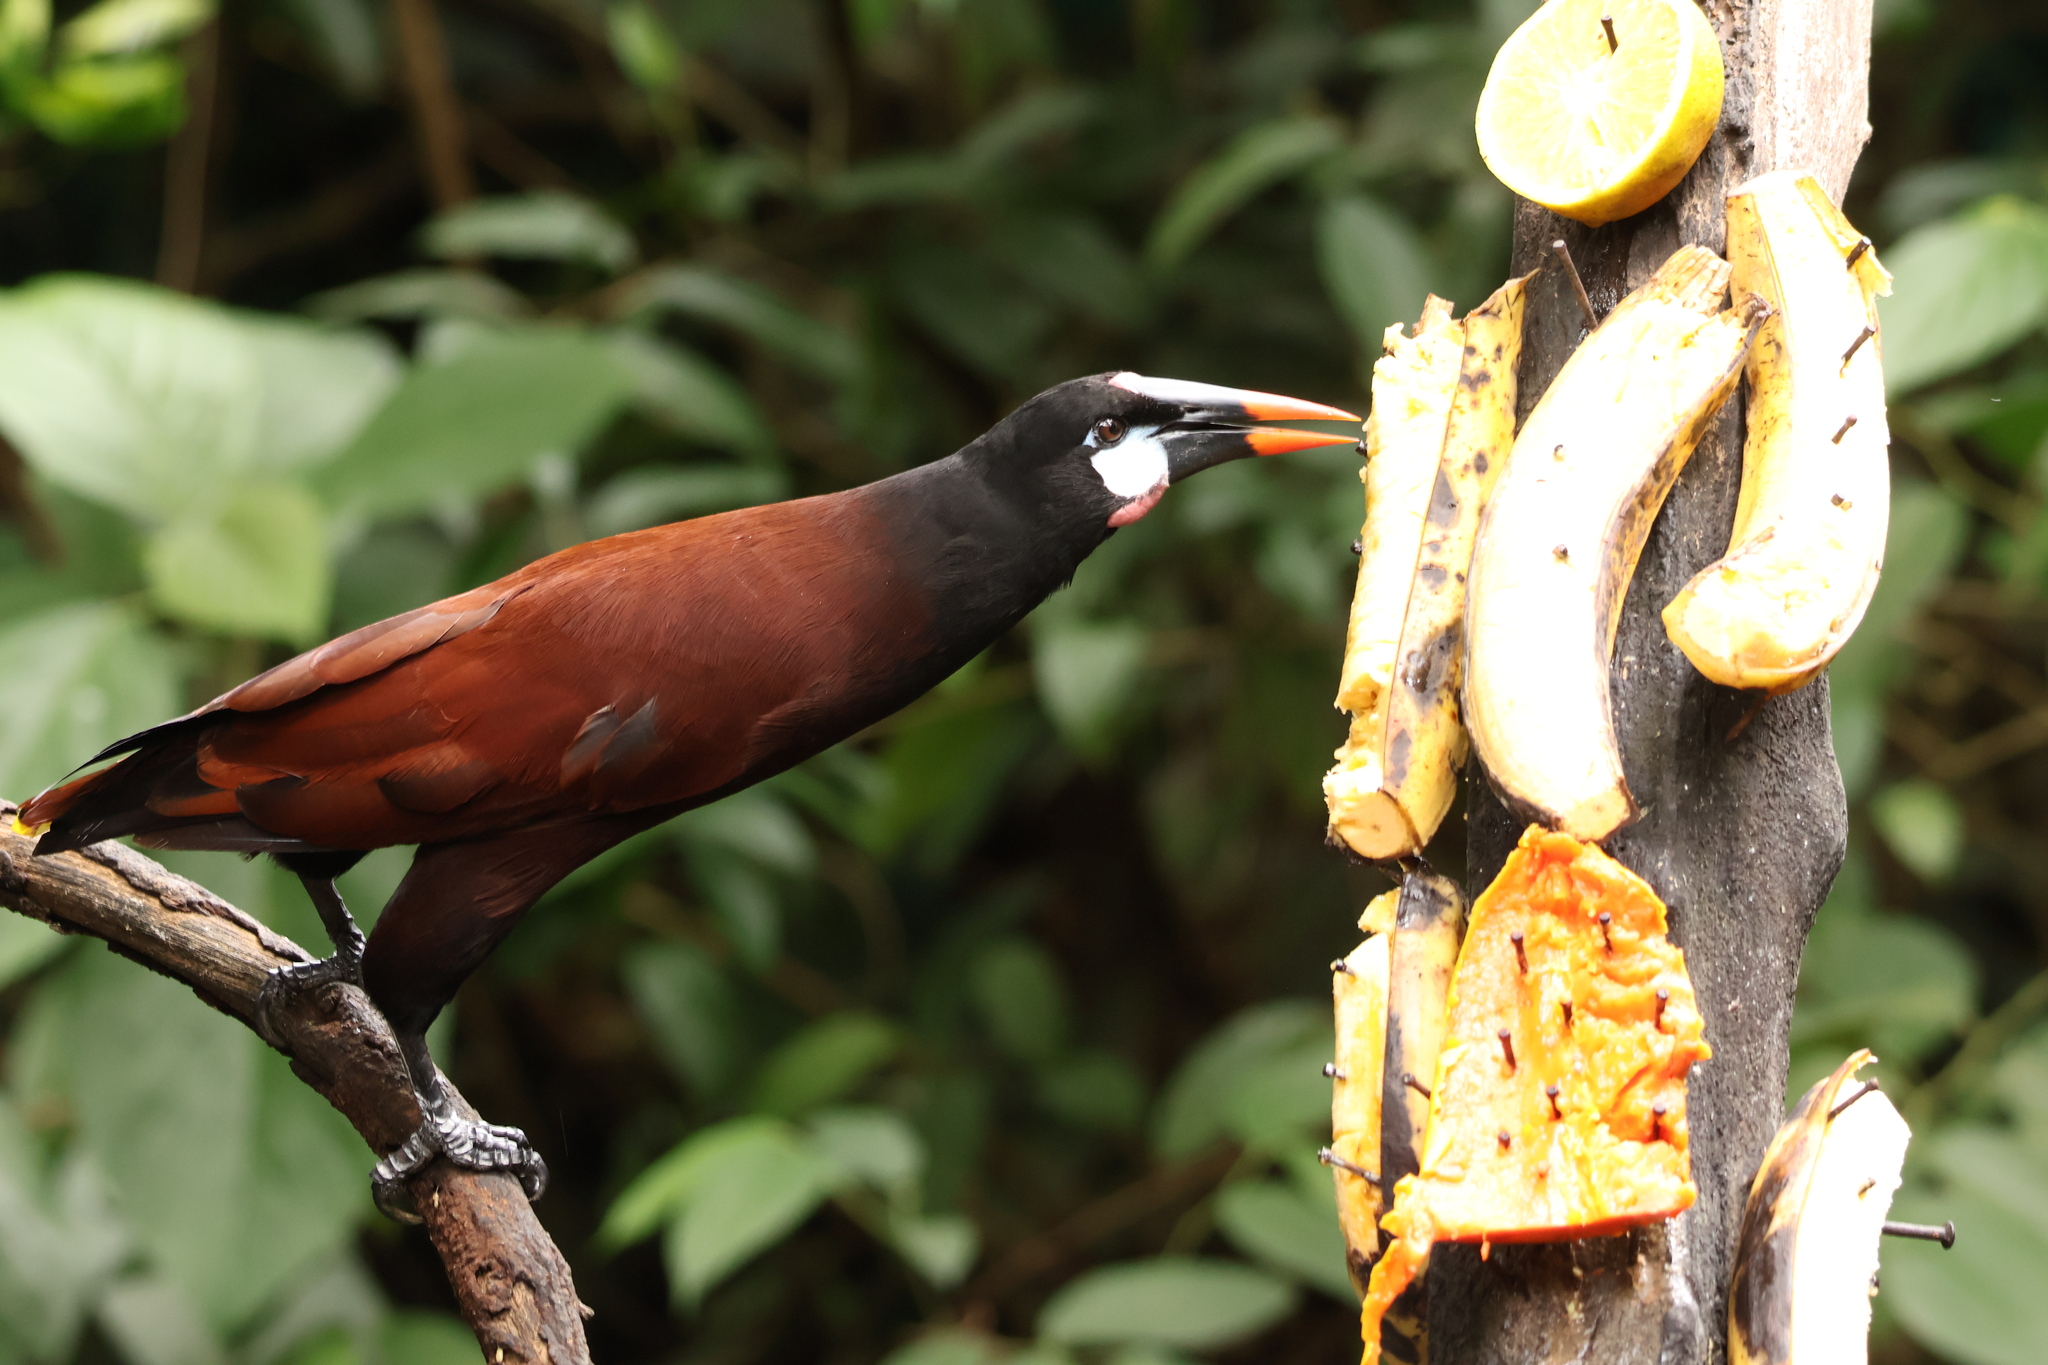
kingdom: Animalia
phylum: Chordata
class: Aves
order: Passeriformes
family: Icteridae
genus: Psarocolius
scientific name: Psarocolius montezuma
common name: Montezuma oropendola
